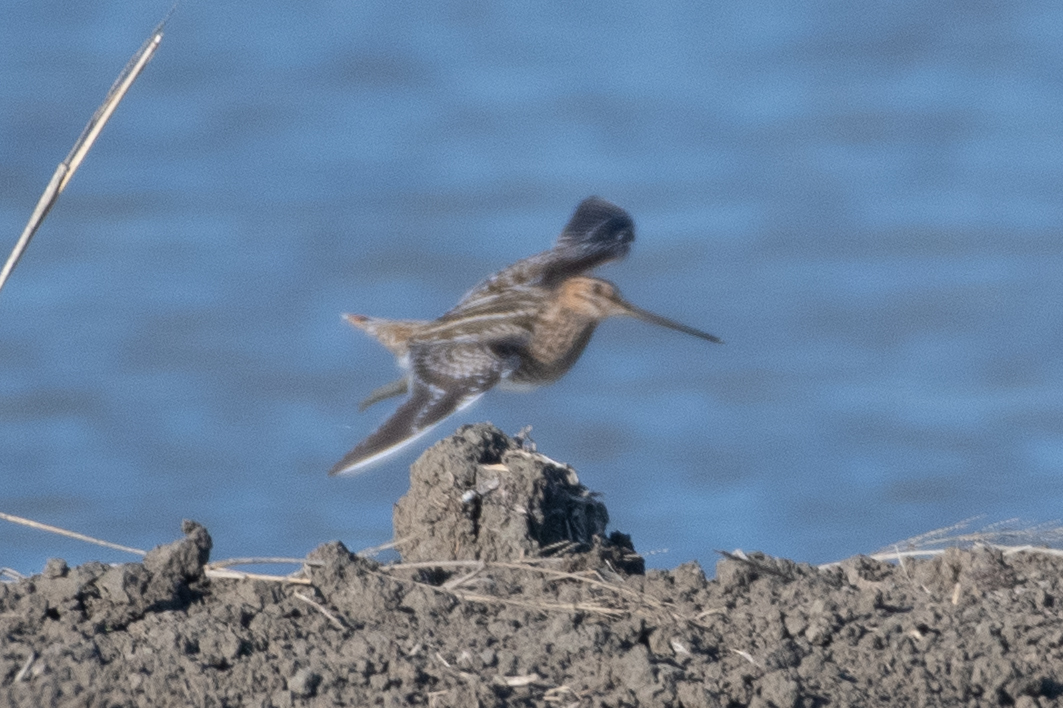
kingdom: Animalia
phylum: Chordata
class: Aves
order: Charadriiformes
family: Scolopacidae
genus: Gallinago
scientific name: Gallinago delicata
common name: Wilson's snipe
